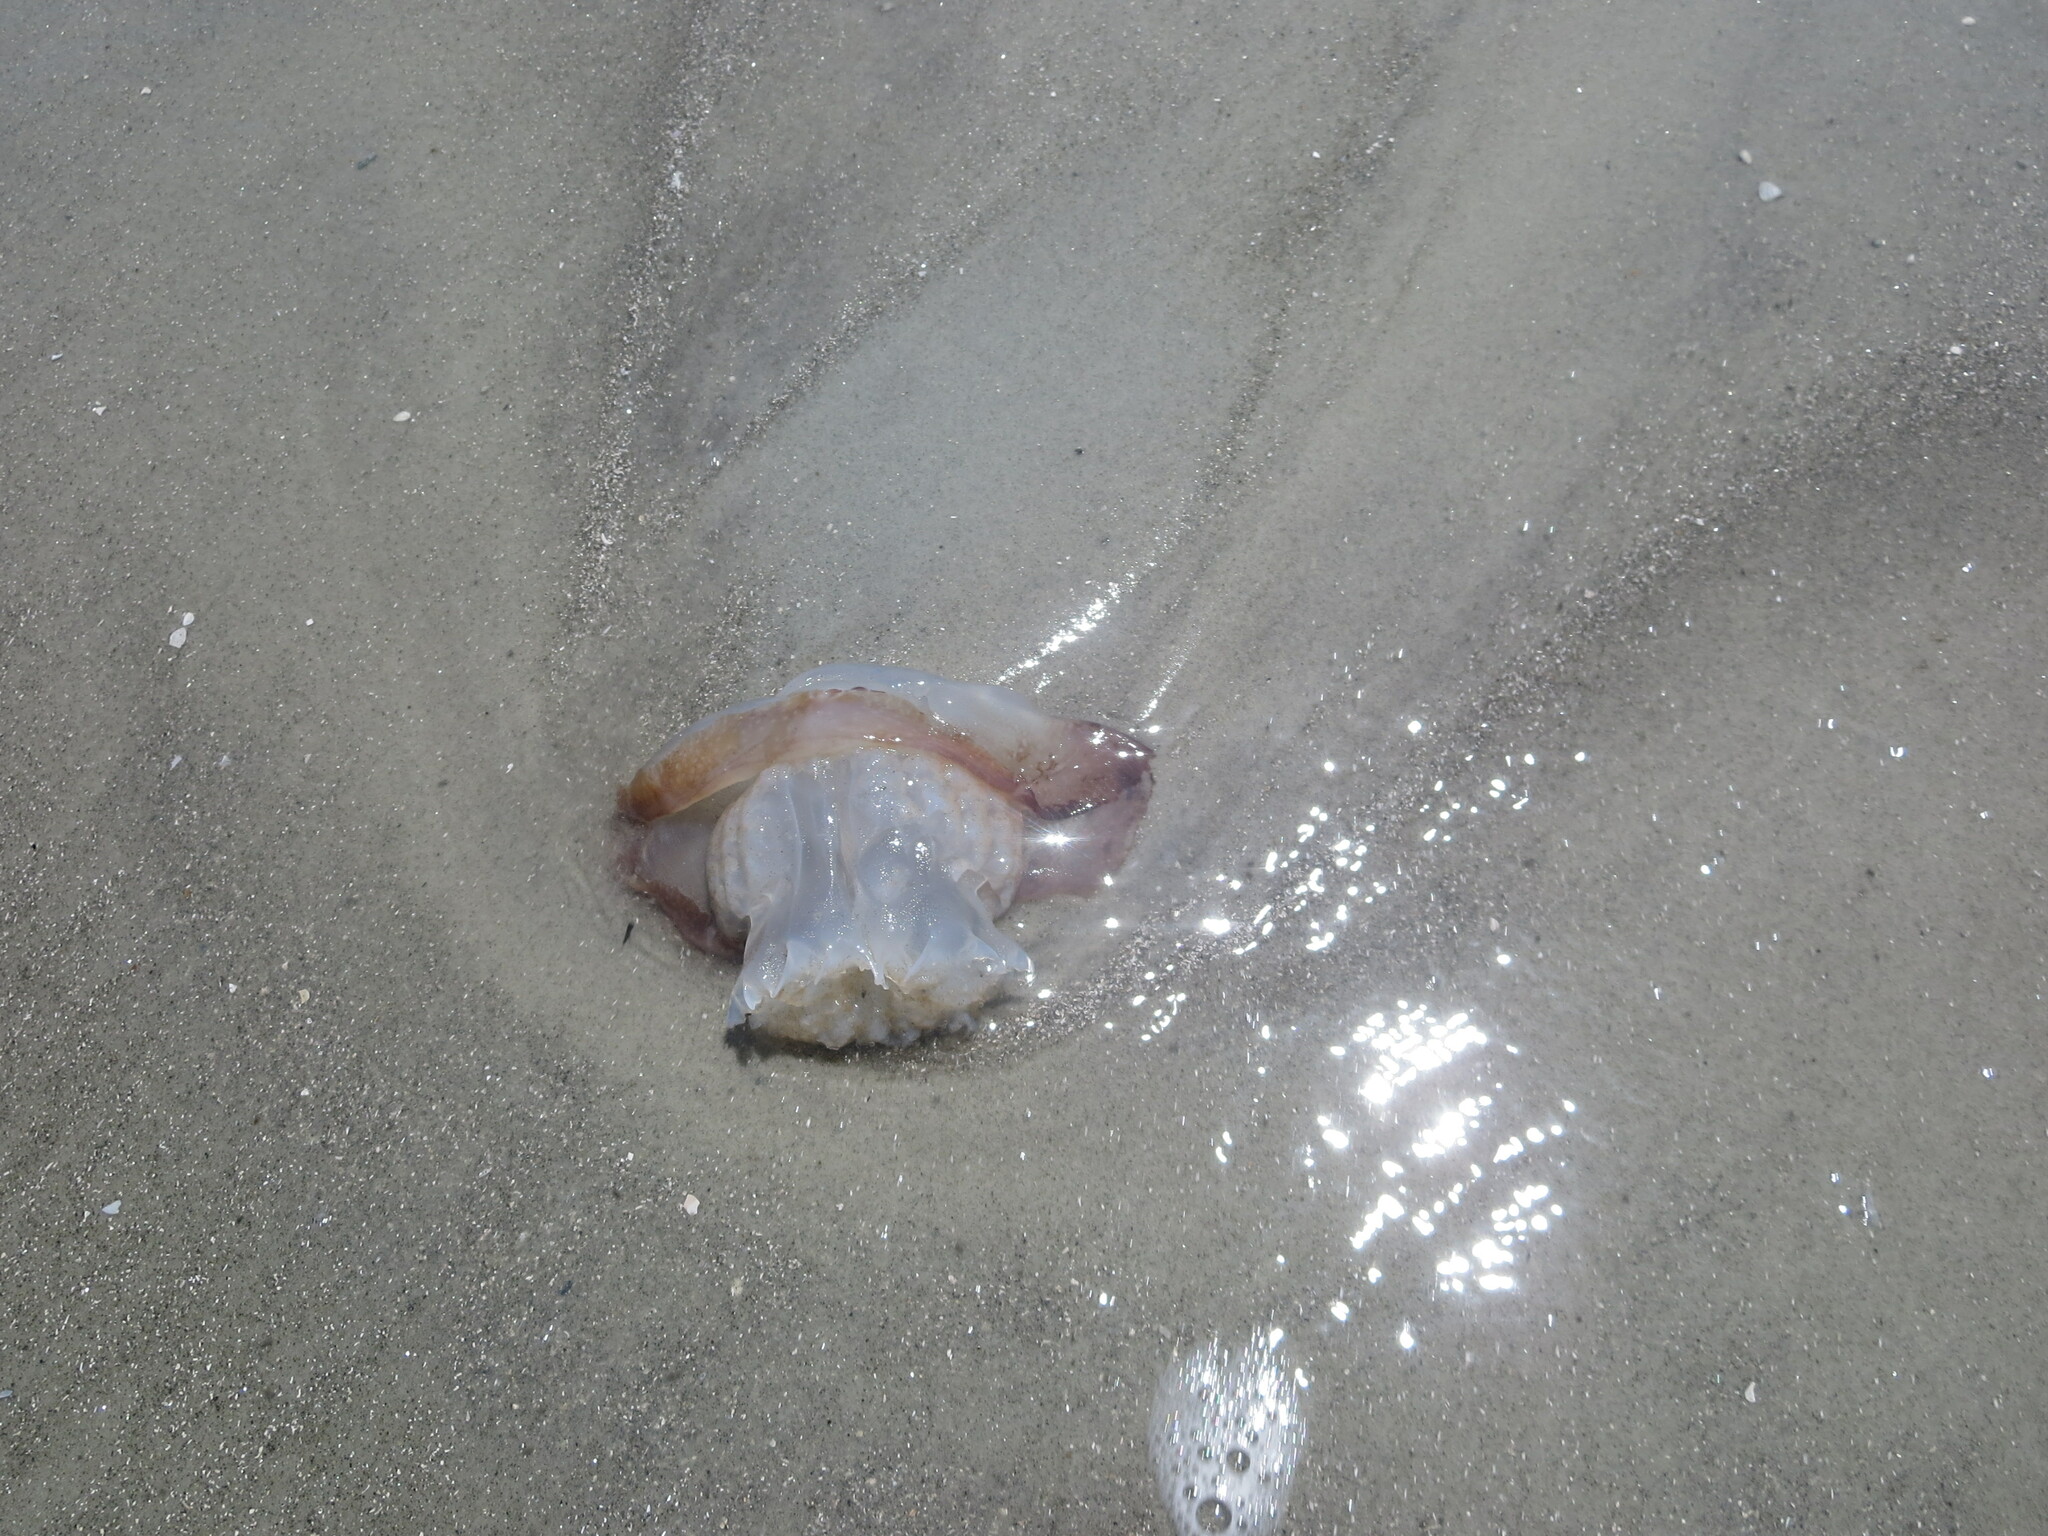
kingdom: Animalia
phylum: Cnidaria
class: Scyphozoa
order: Rhizostomeae
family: Stomolophidae
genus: Stomolophus
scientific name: Stomolophus meleagris
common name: Cabbagehead
